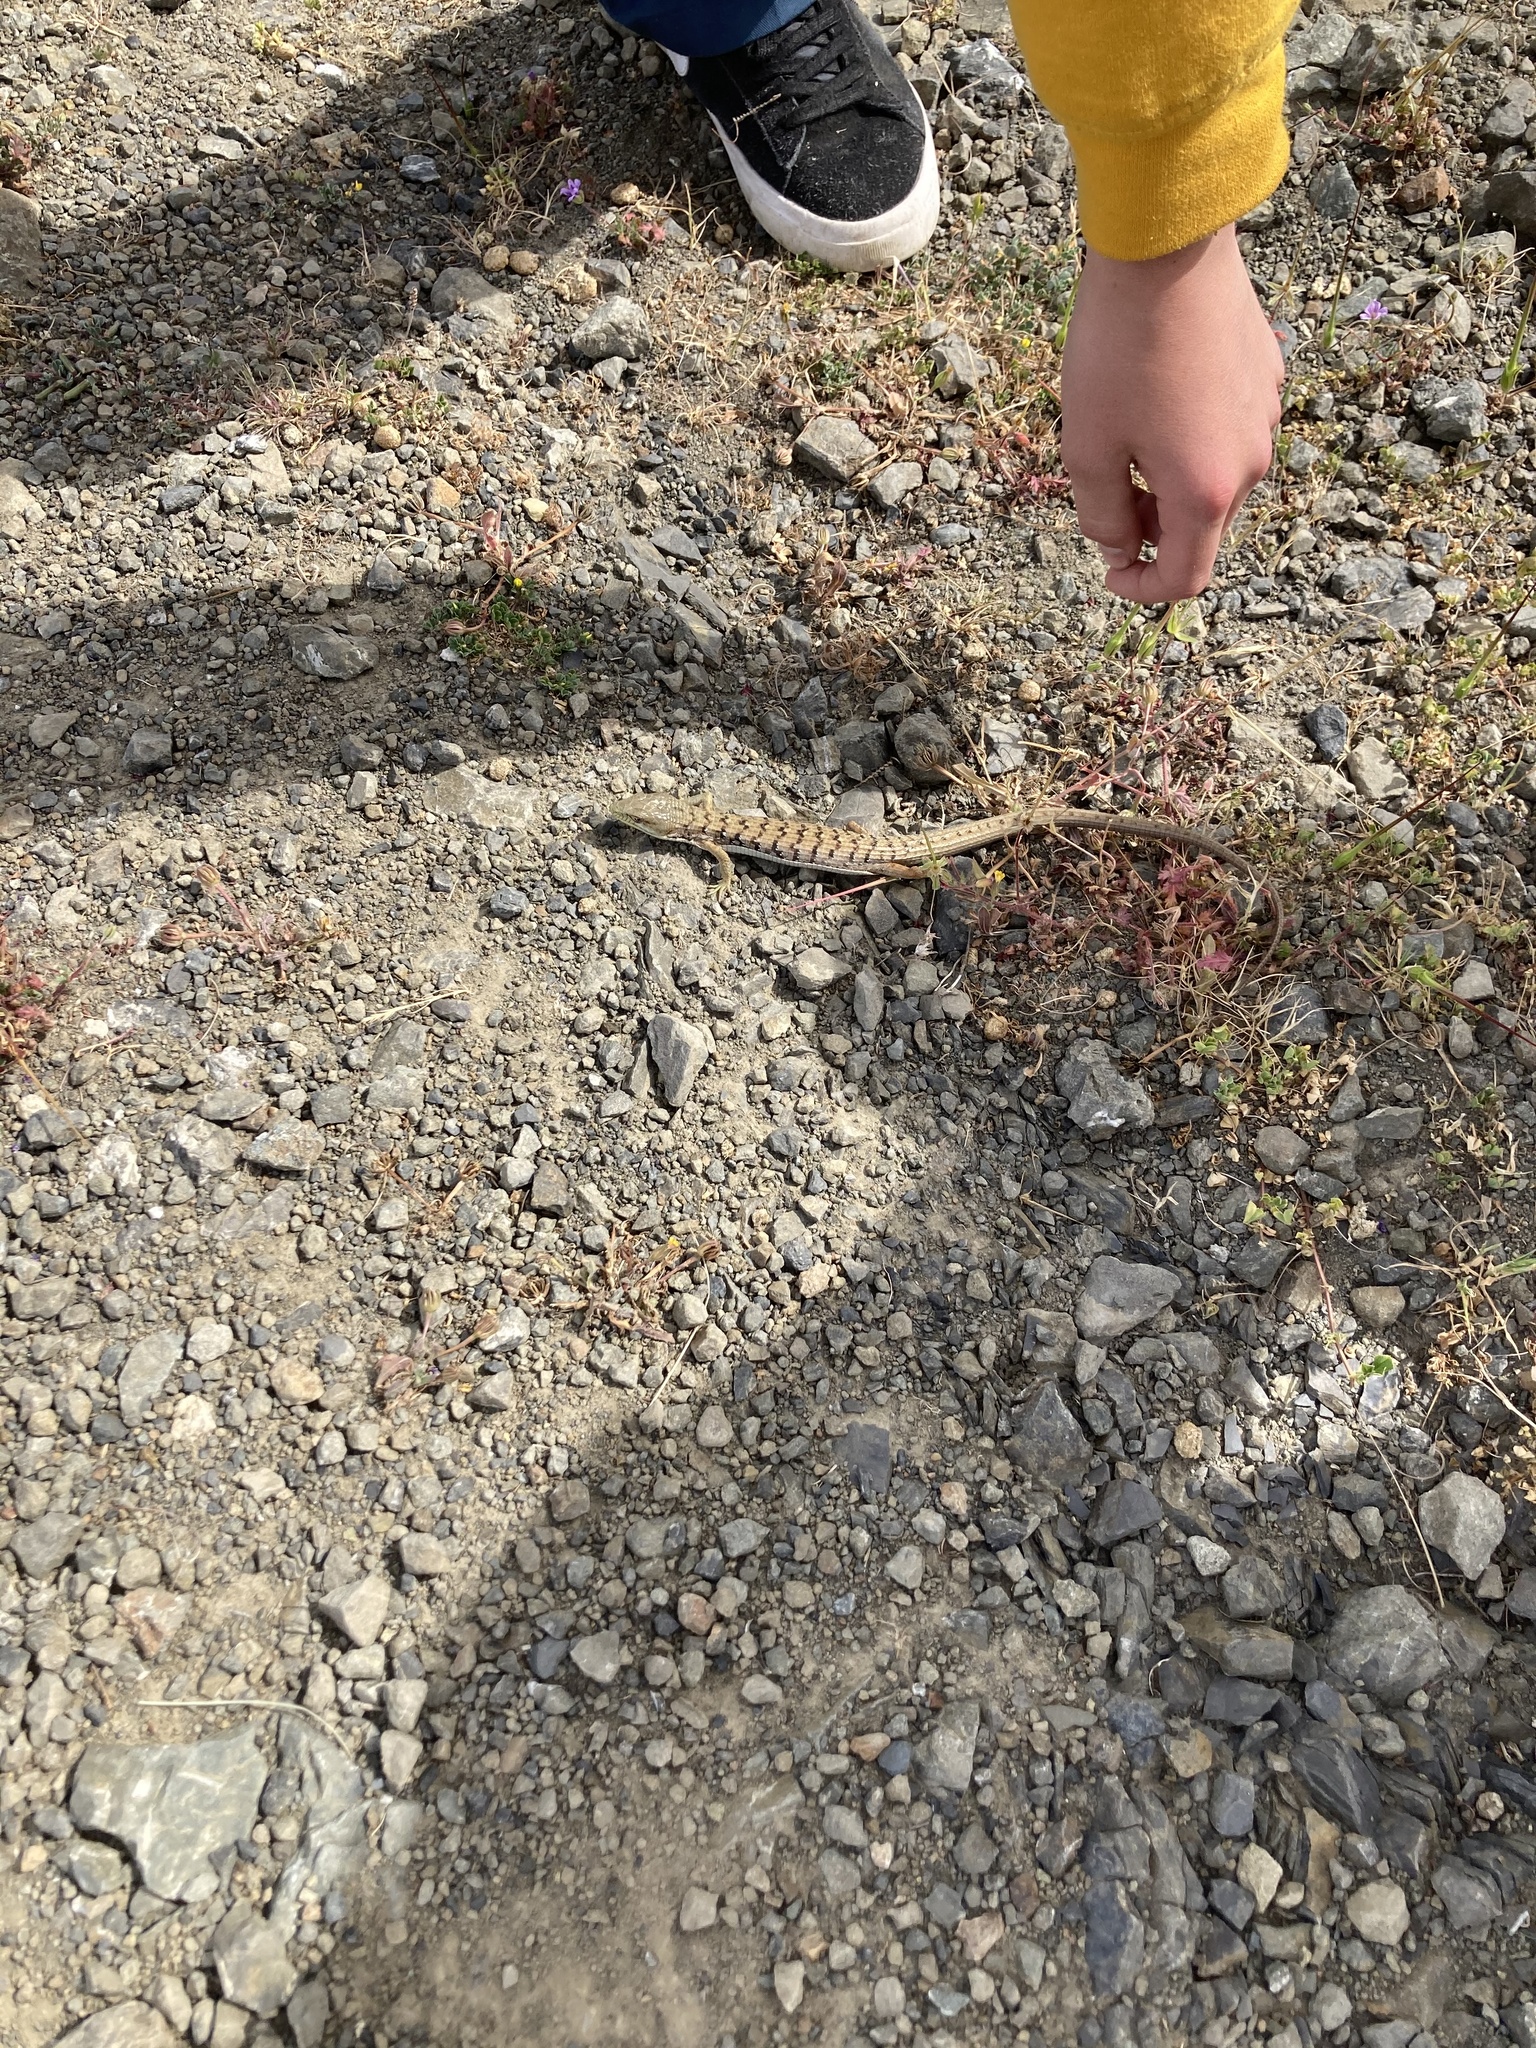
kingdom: Animalia
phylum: Chordata
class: Squamata
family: Anguidae
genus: Elgaria
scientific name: Elgaria multicarinata
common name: Southern alligator lizard
